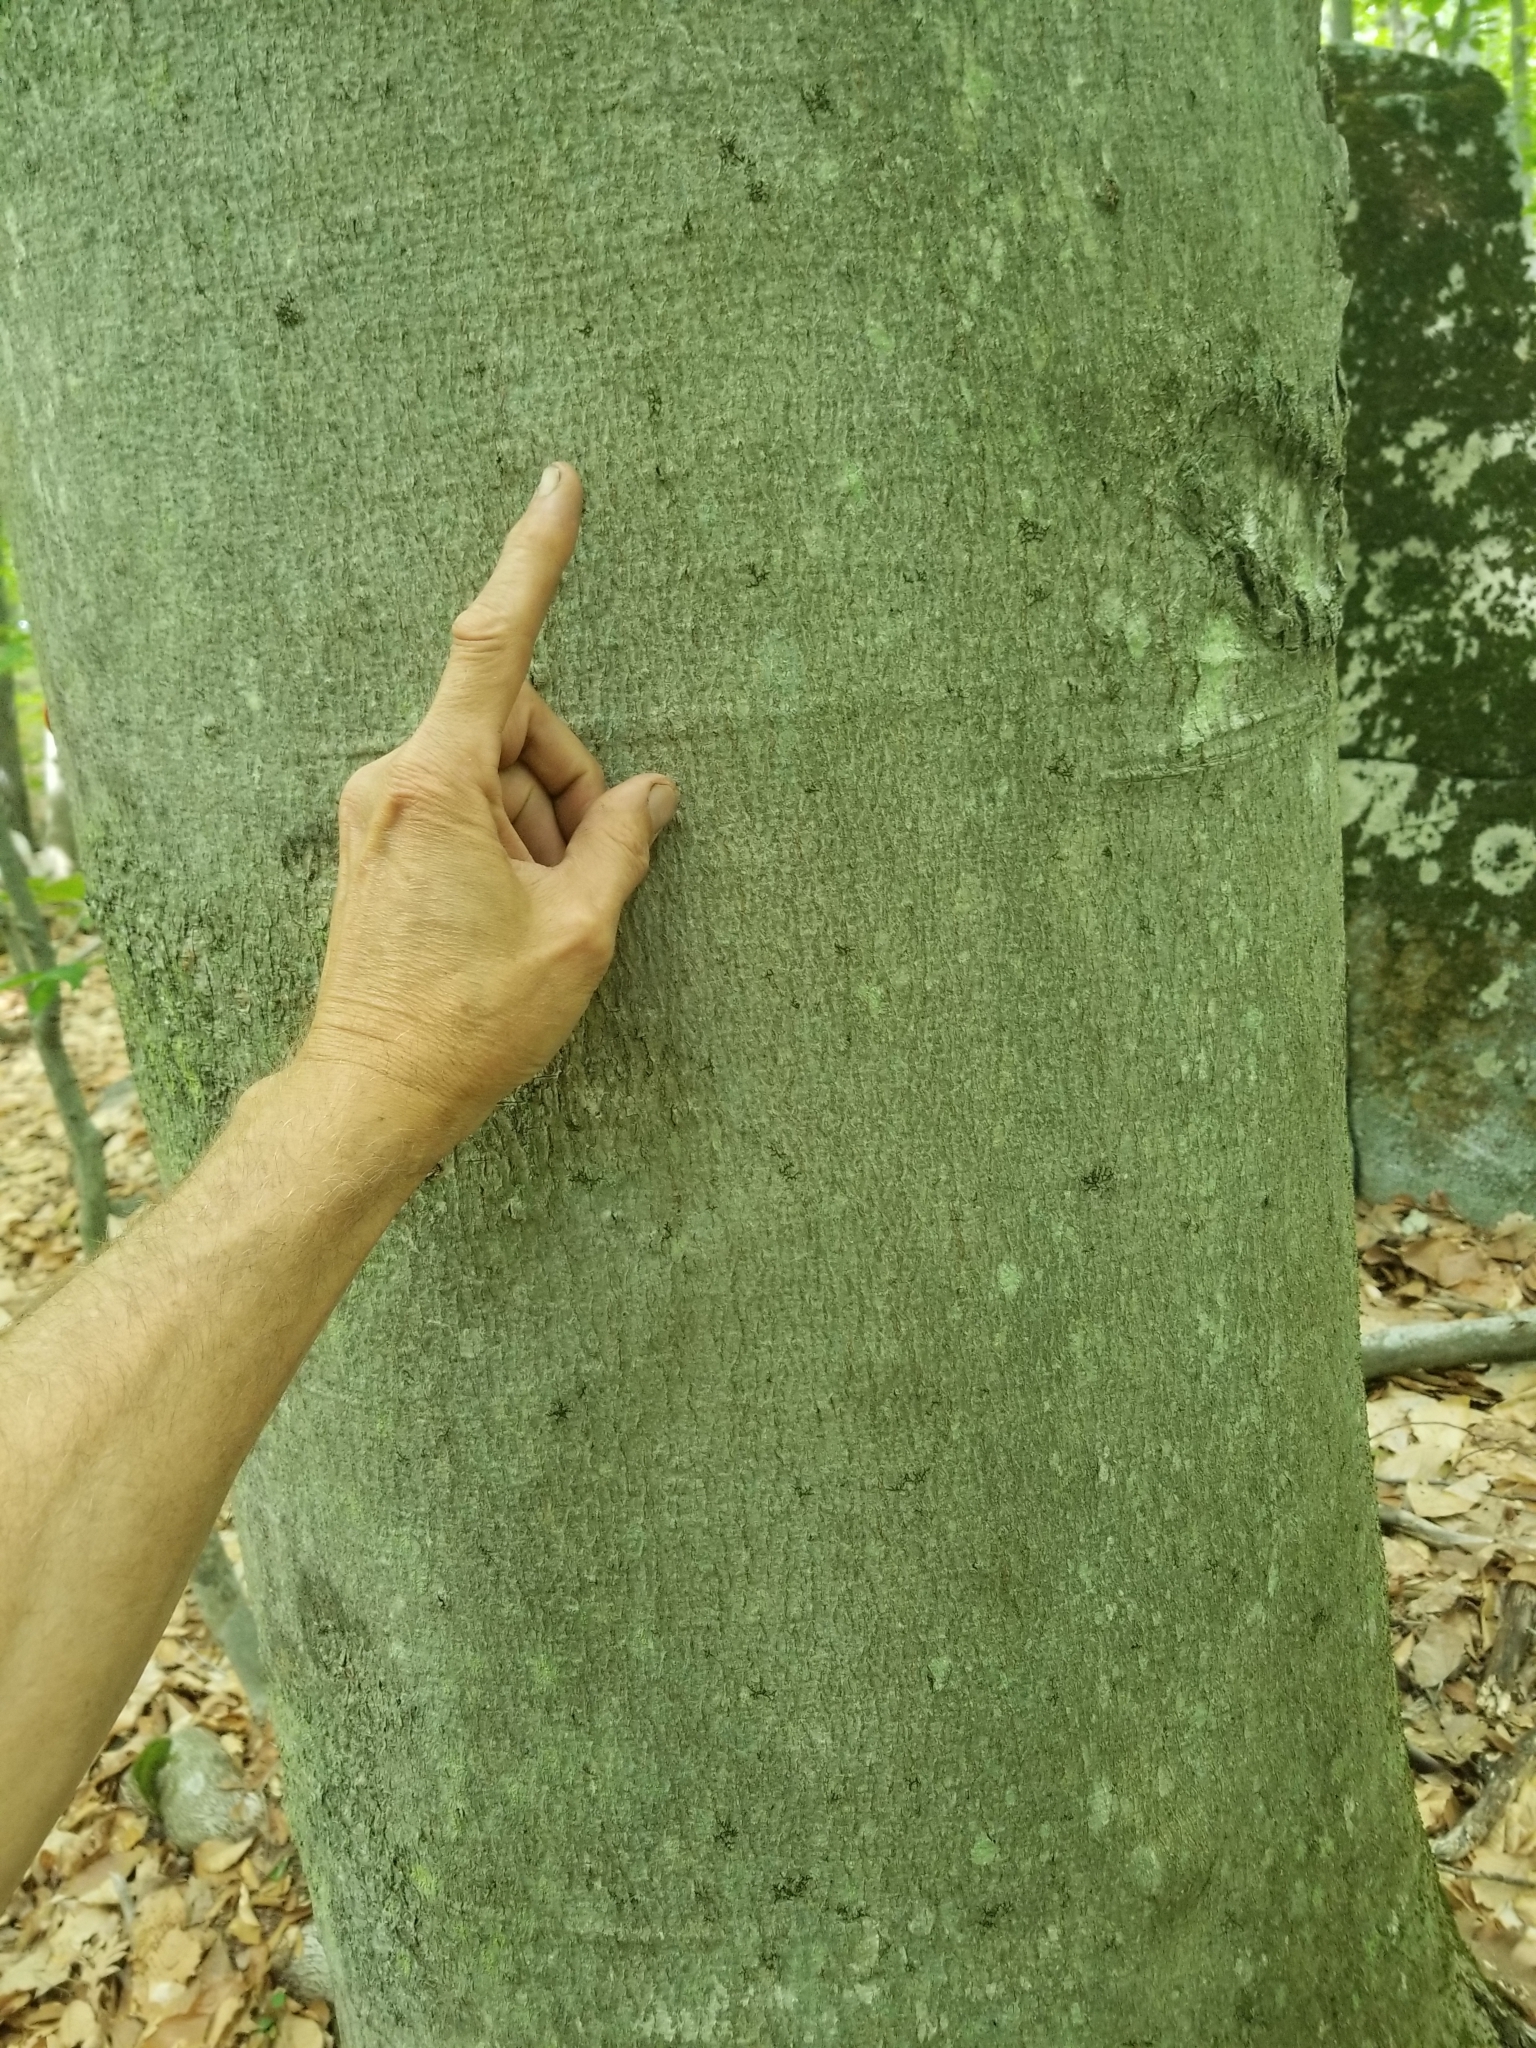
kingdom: Plantae
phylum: Tracheophyta
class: Magnoliopsida
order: Fagales
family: Fagaceae
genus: Fagus
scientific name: Fagus grandifolia
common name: American beech
